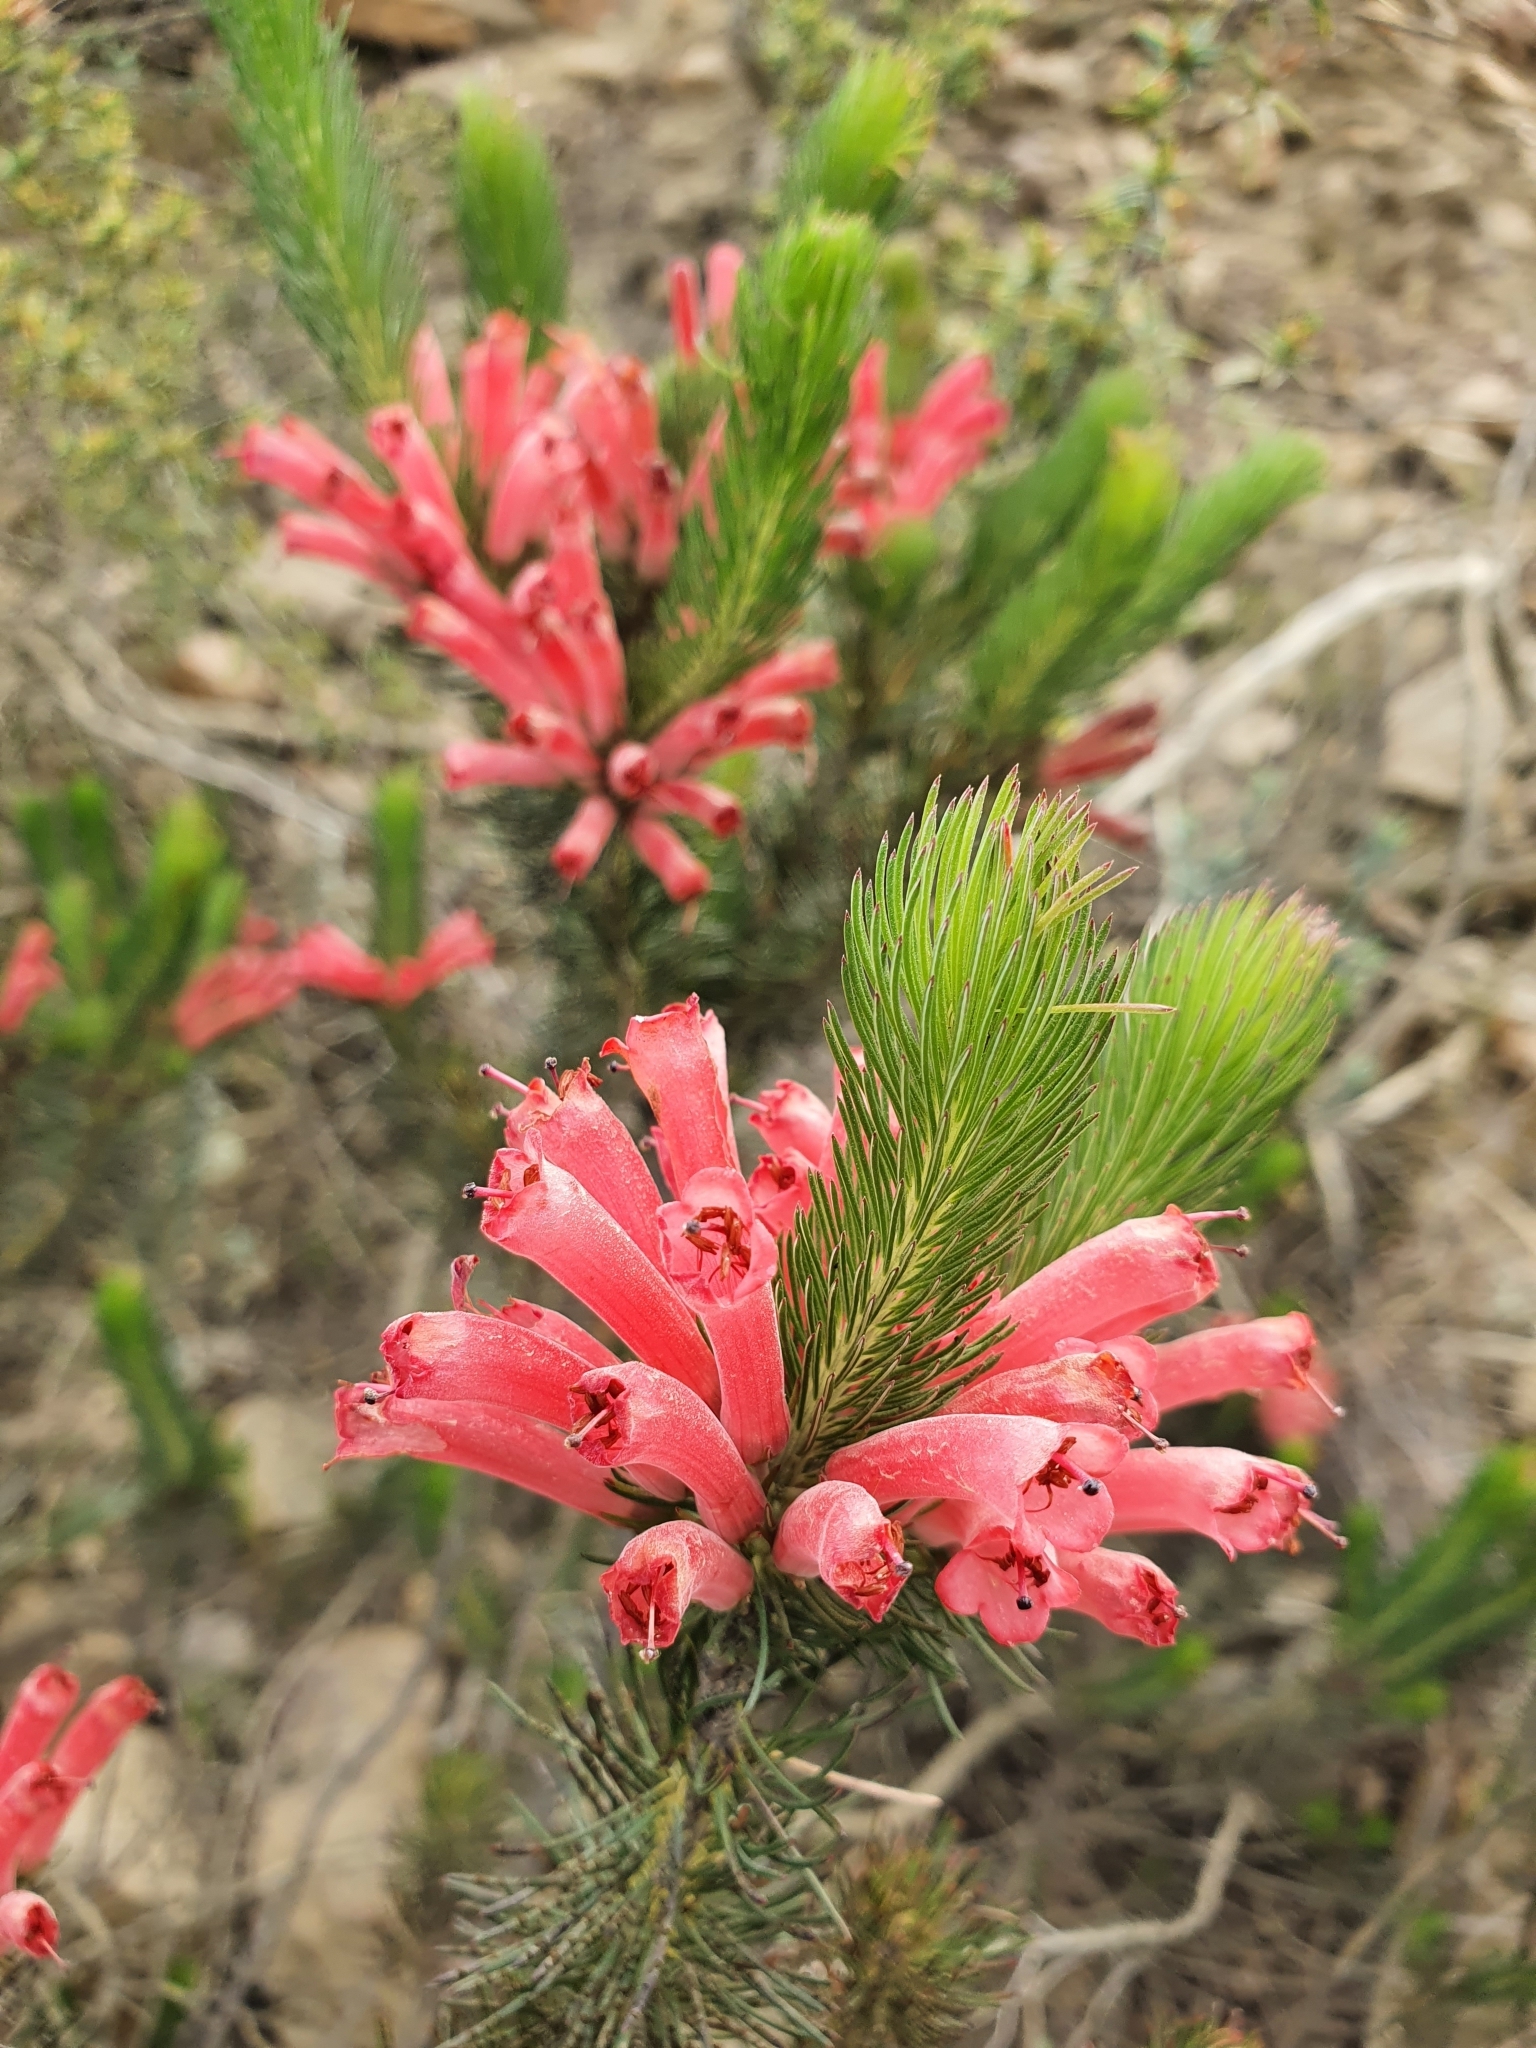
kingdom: Plantae
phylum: Tracheophyta
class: Magnoliopsida
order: Ericales
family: Ericaceae
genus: Erica
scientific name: Erica vestita
